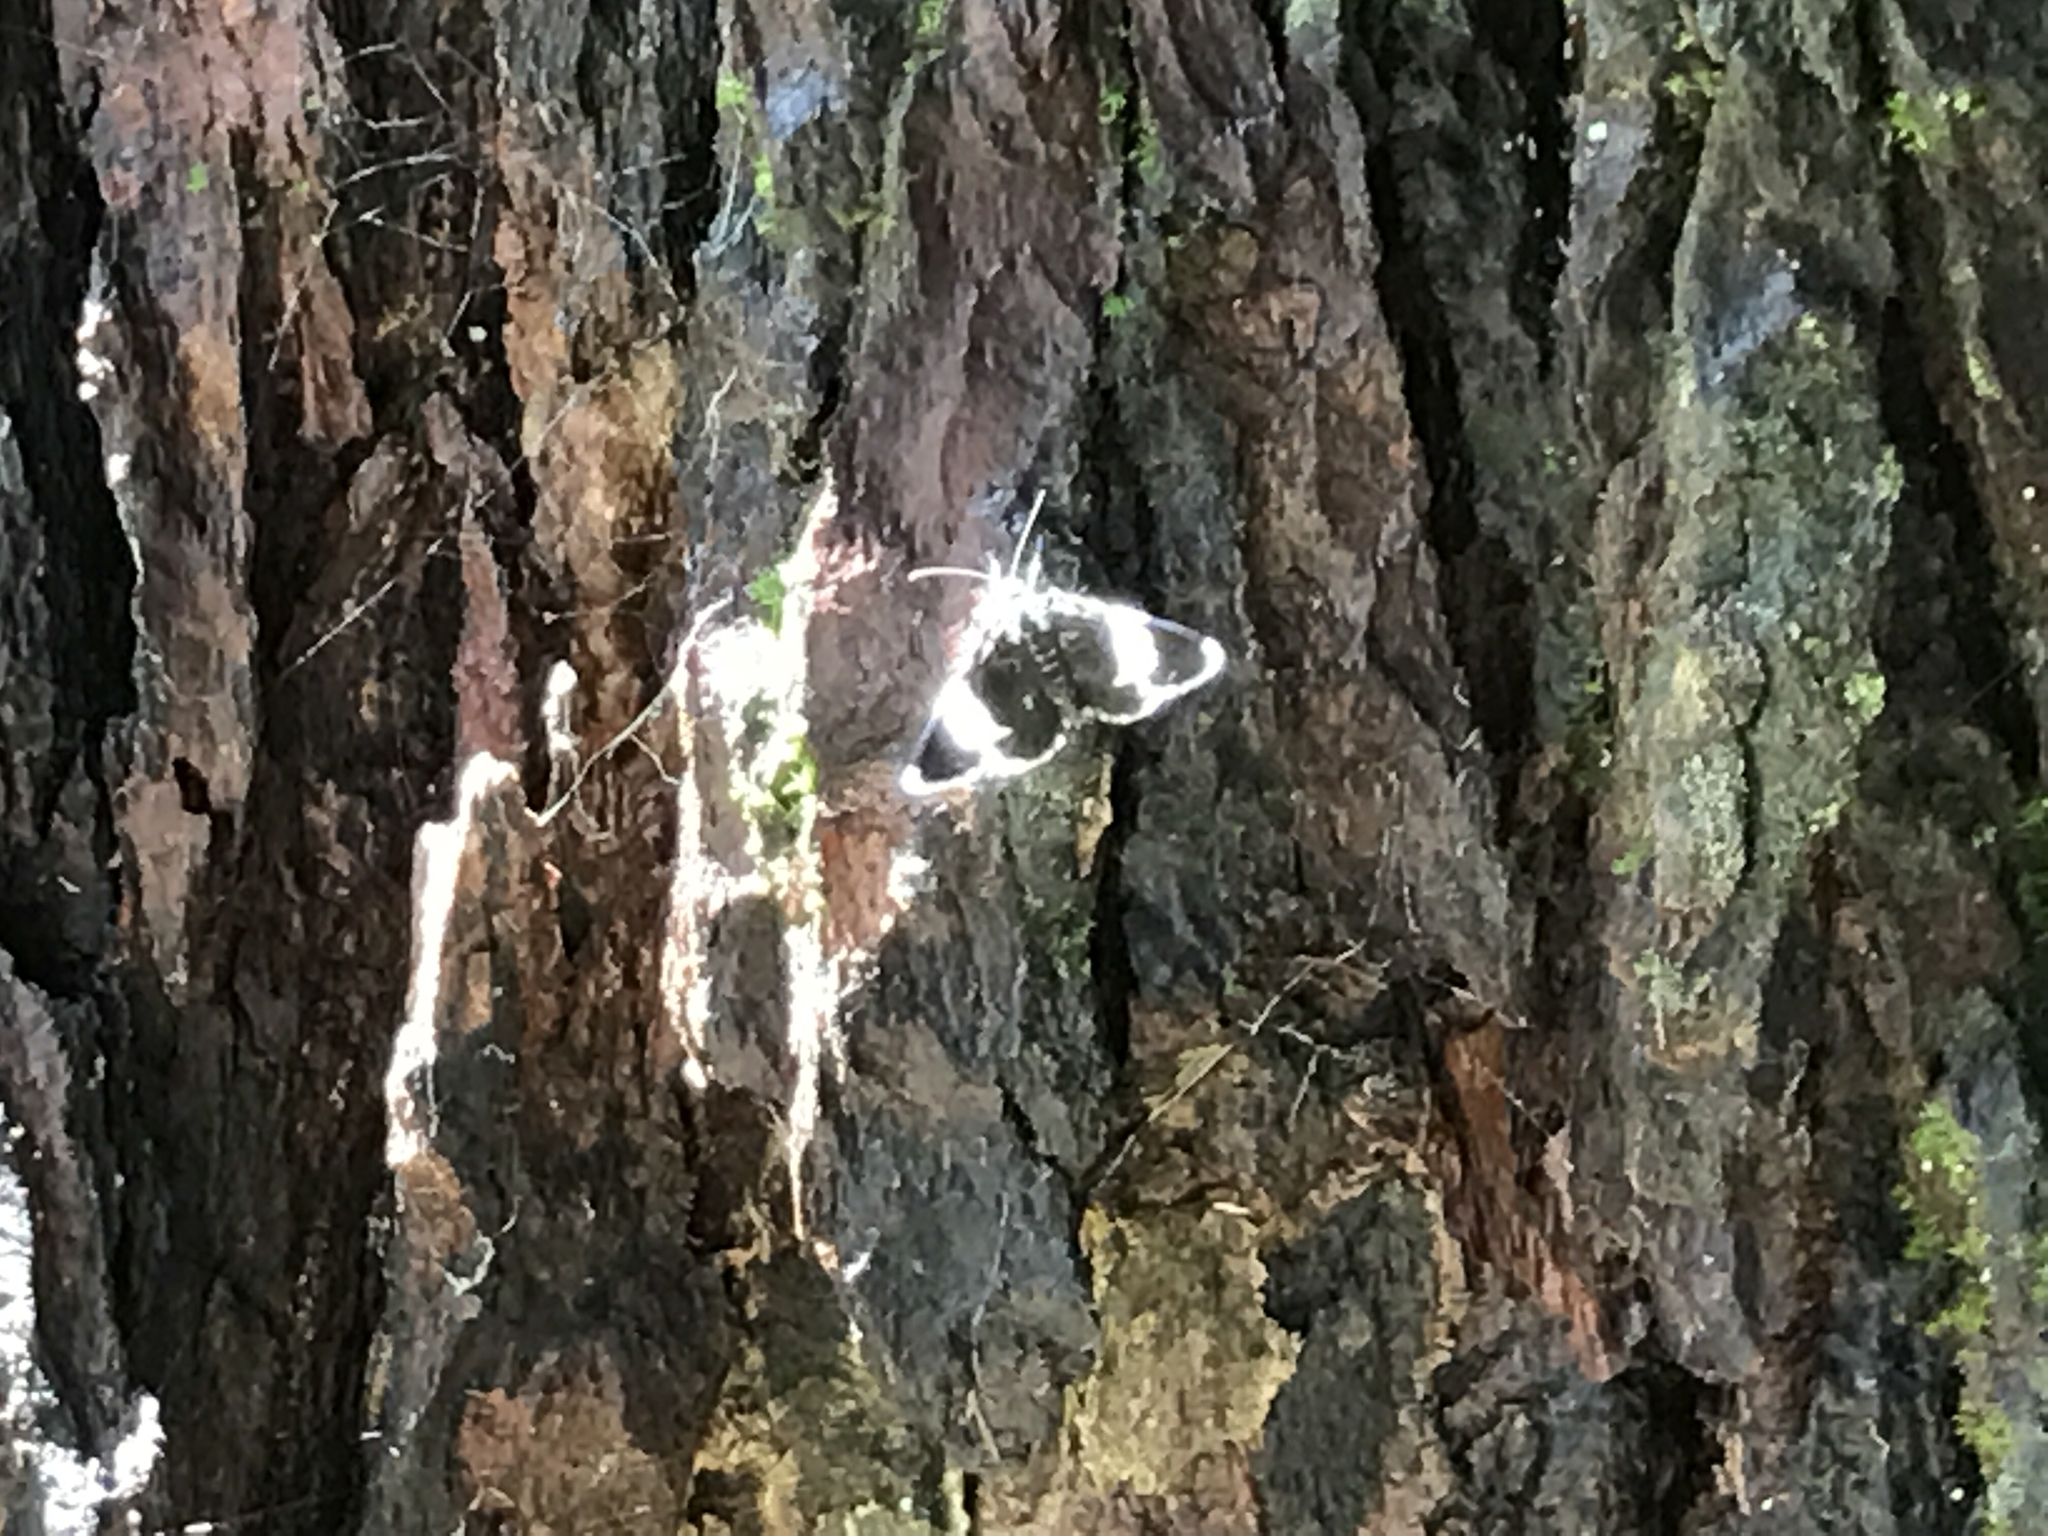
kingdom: Animalia
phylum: Arthropoda
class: Insecta
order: Lepidoptera
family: Geometridae
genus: Trichodezia
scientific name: Trichodezia albovittata
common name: White striped black
